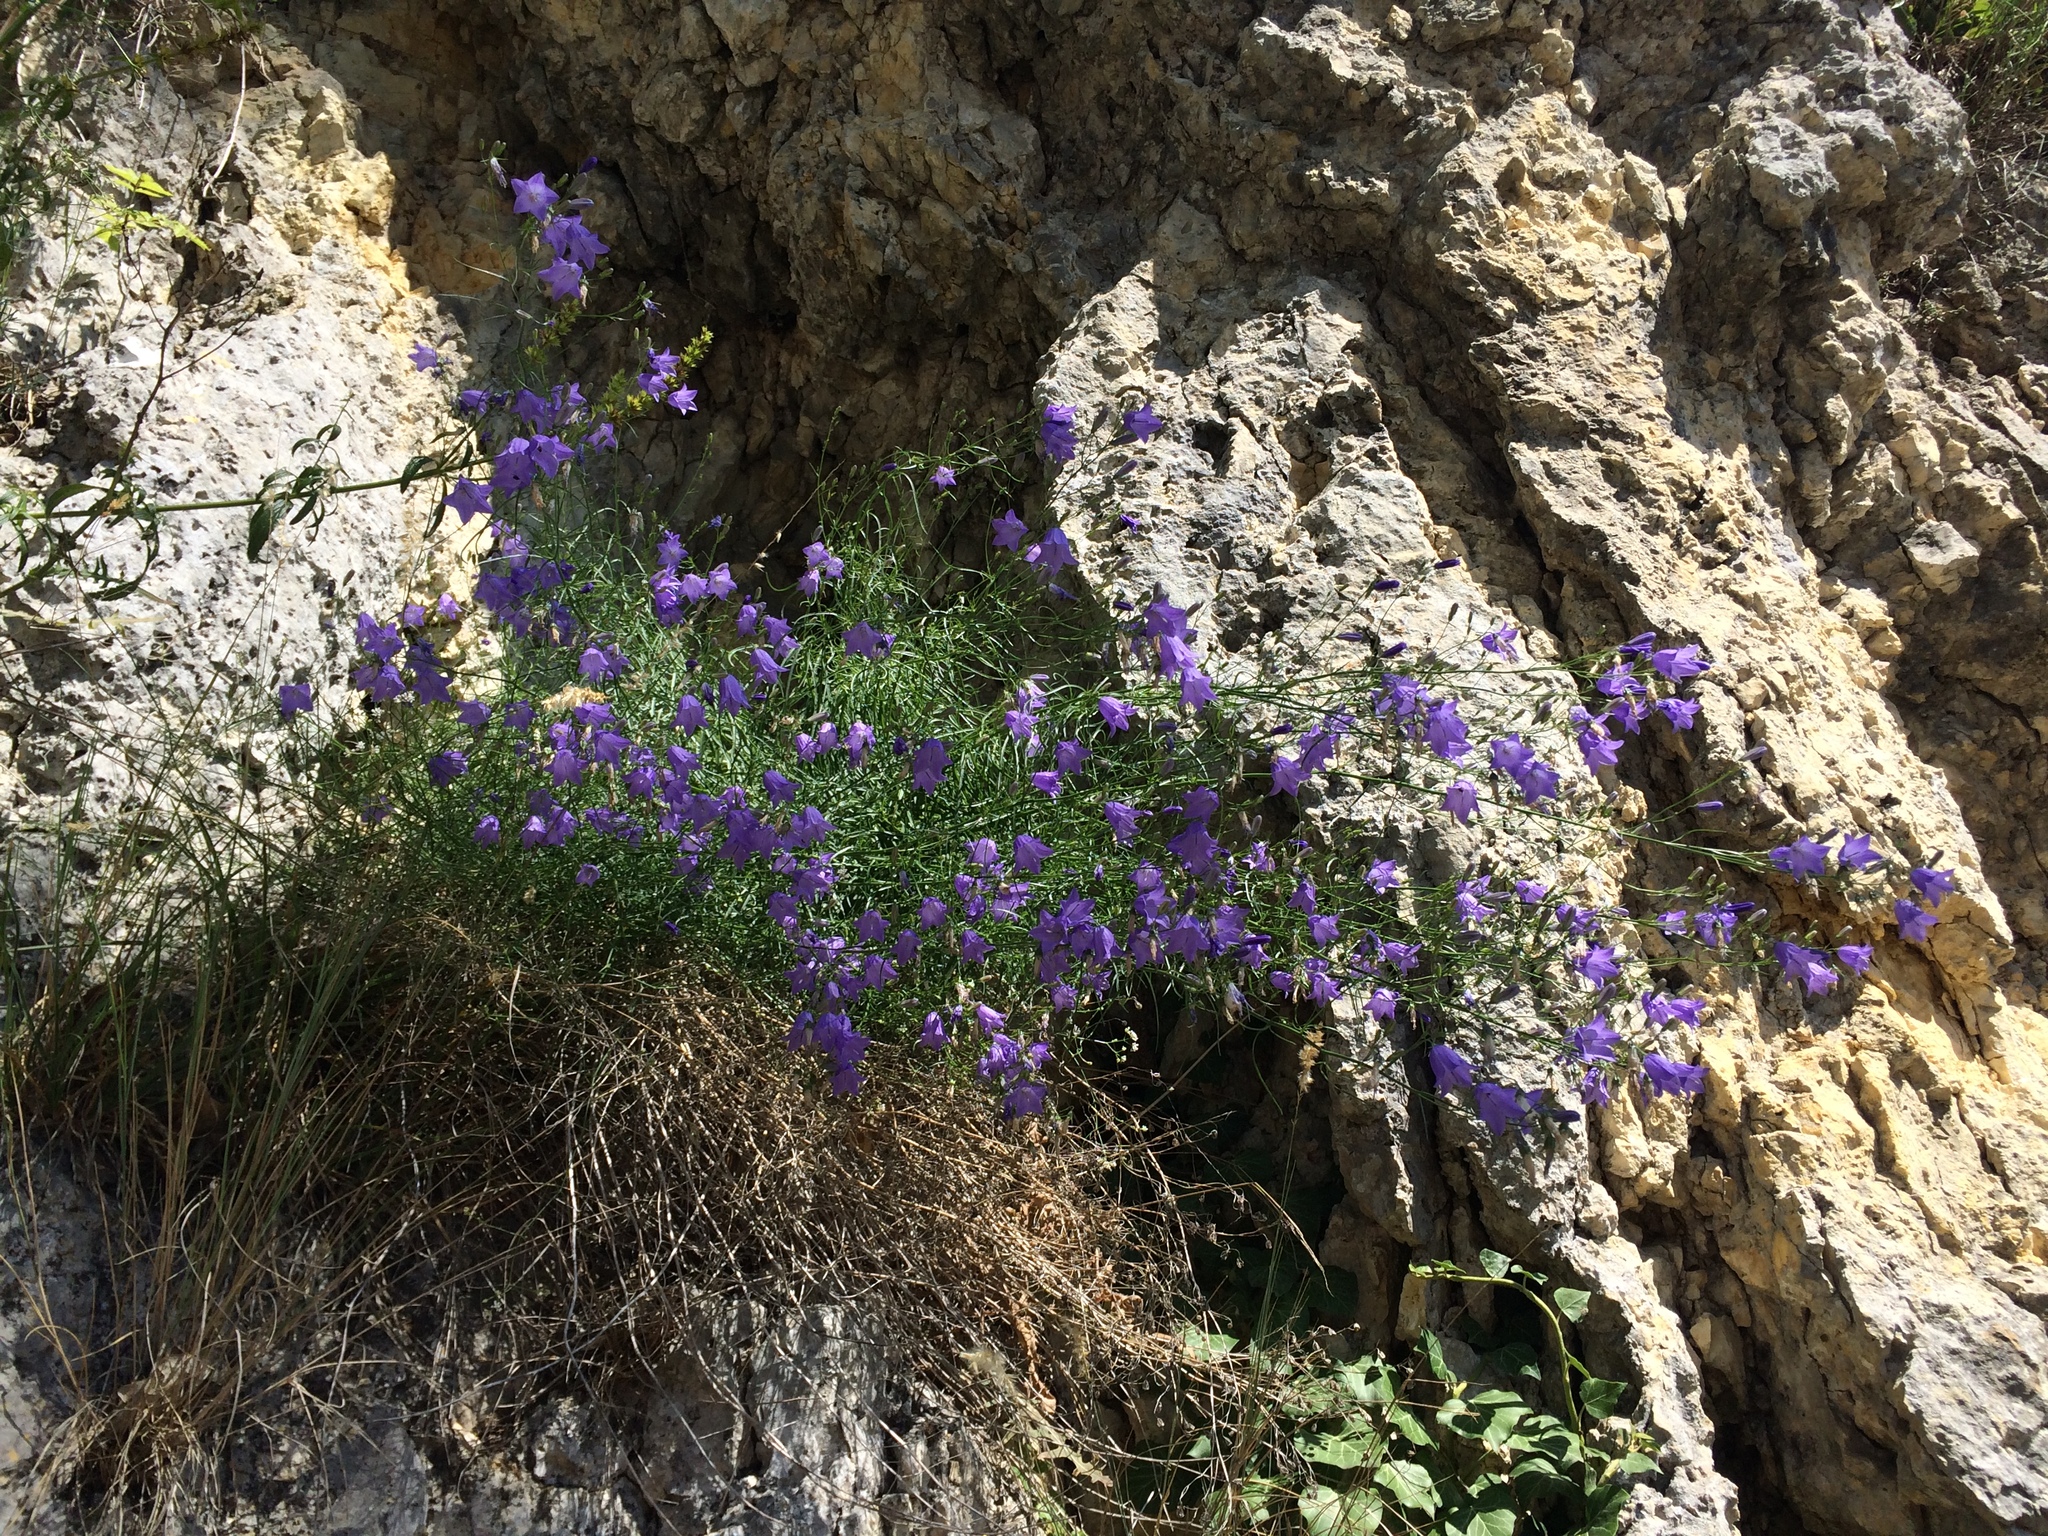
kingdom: Plantae
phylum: Tracheophyta
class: Magnoliopsida
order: Asterales
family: Campanulaceae
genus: Campanula
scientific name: Campanula rotundifolia
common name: Harebell
